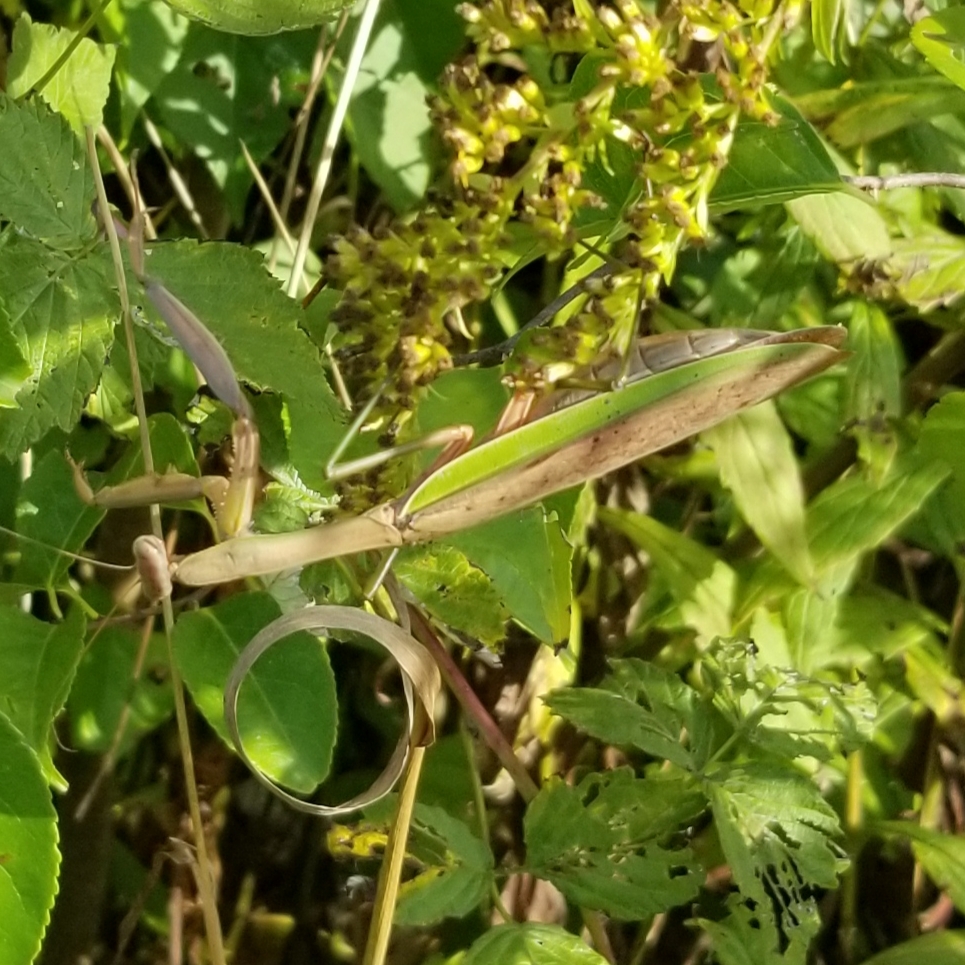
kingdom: Animalia
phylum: Arthropoda
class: Insecta
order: Mantodea
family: Mantidae
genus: Tenodera
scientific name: Tenodera sinensis
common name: Chinese mantis
